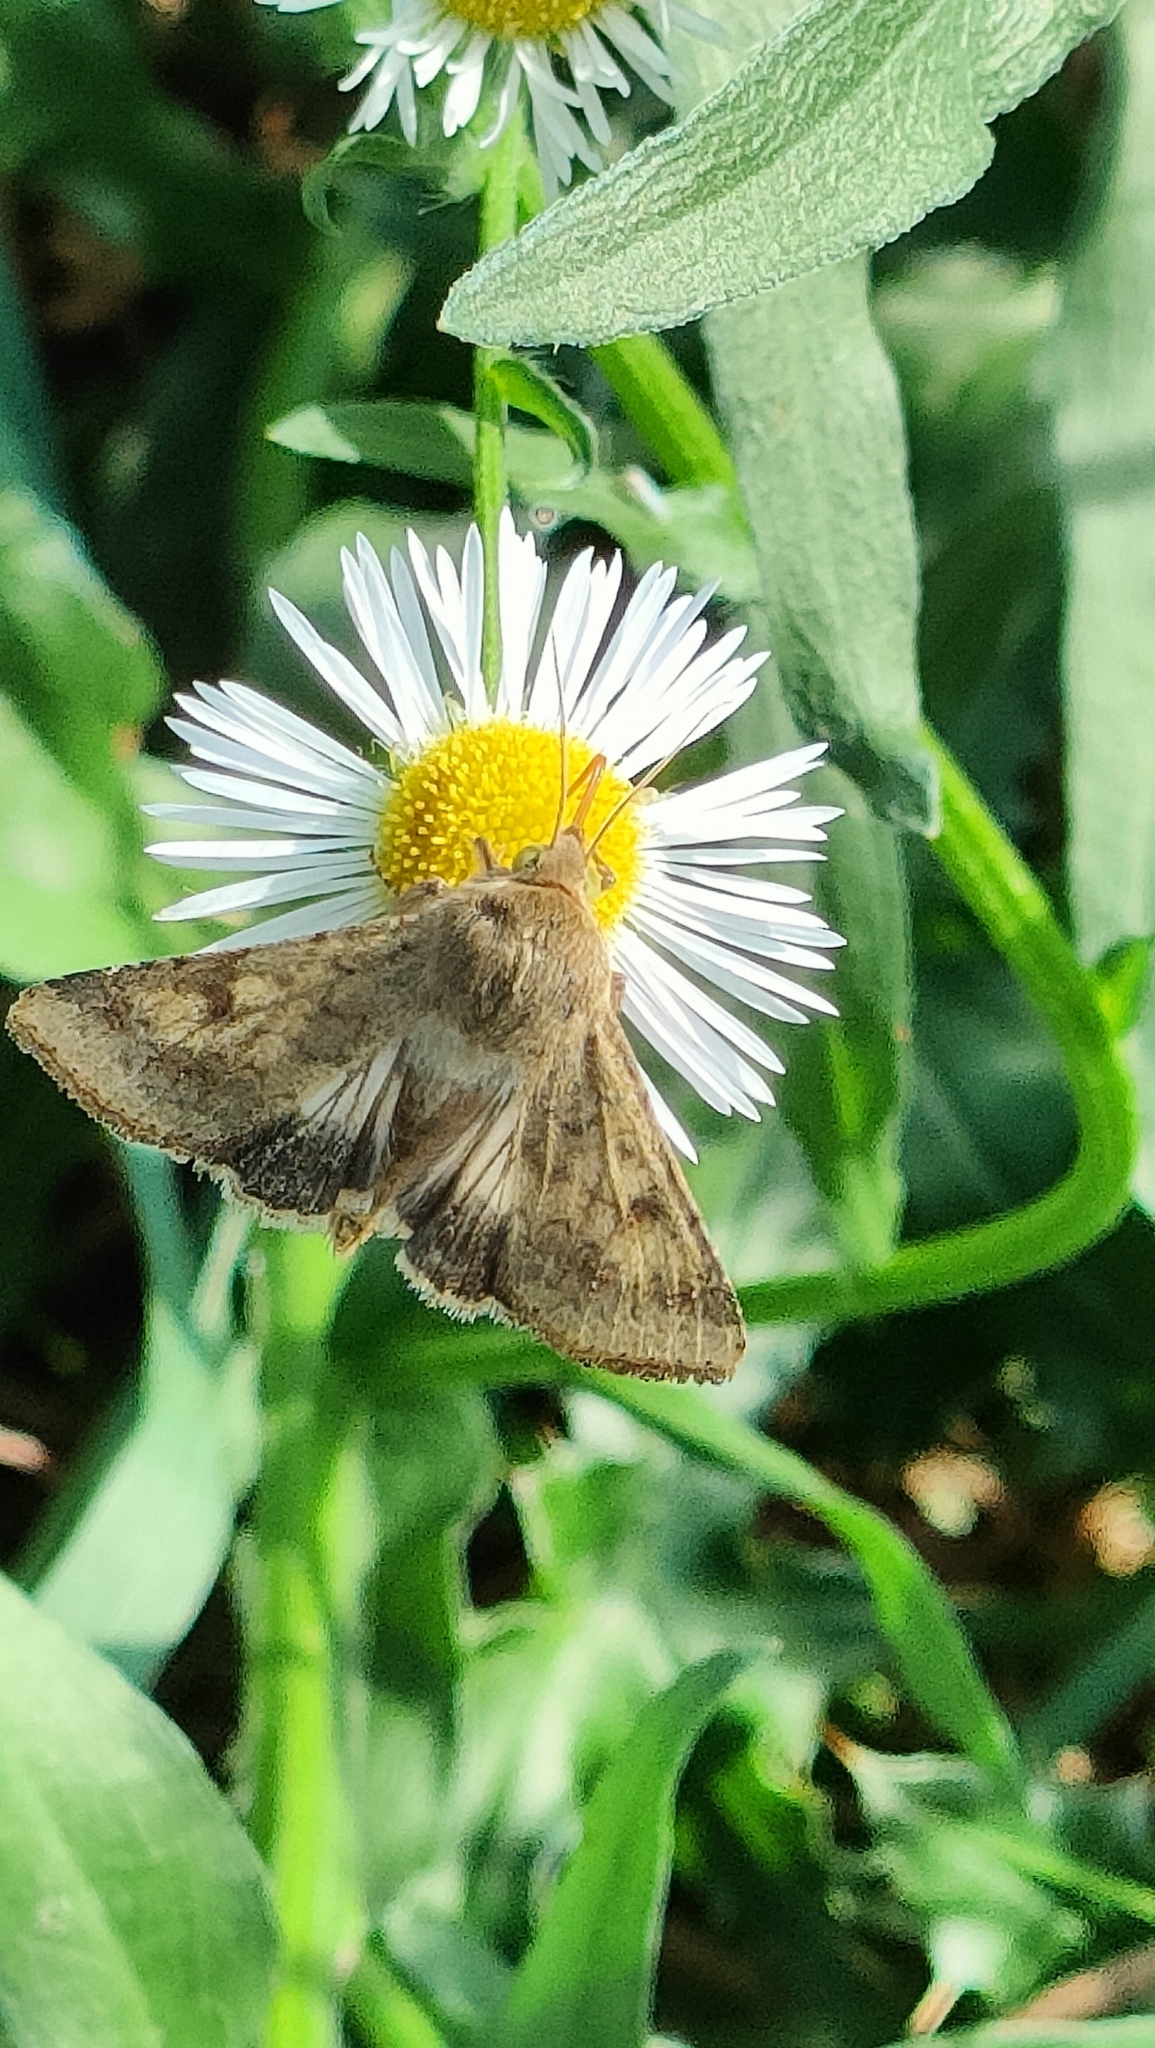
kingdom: Animalia
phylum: Arthropoda
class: Insecta
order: Lepidoptera
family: Noctuidae
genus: Helicoverpa
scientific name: Helicoverpa armigera
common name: Cotton bollworm
